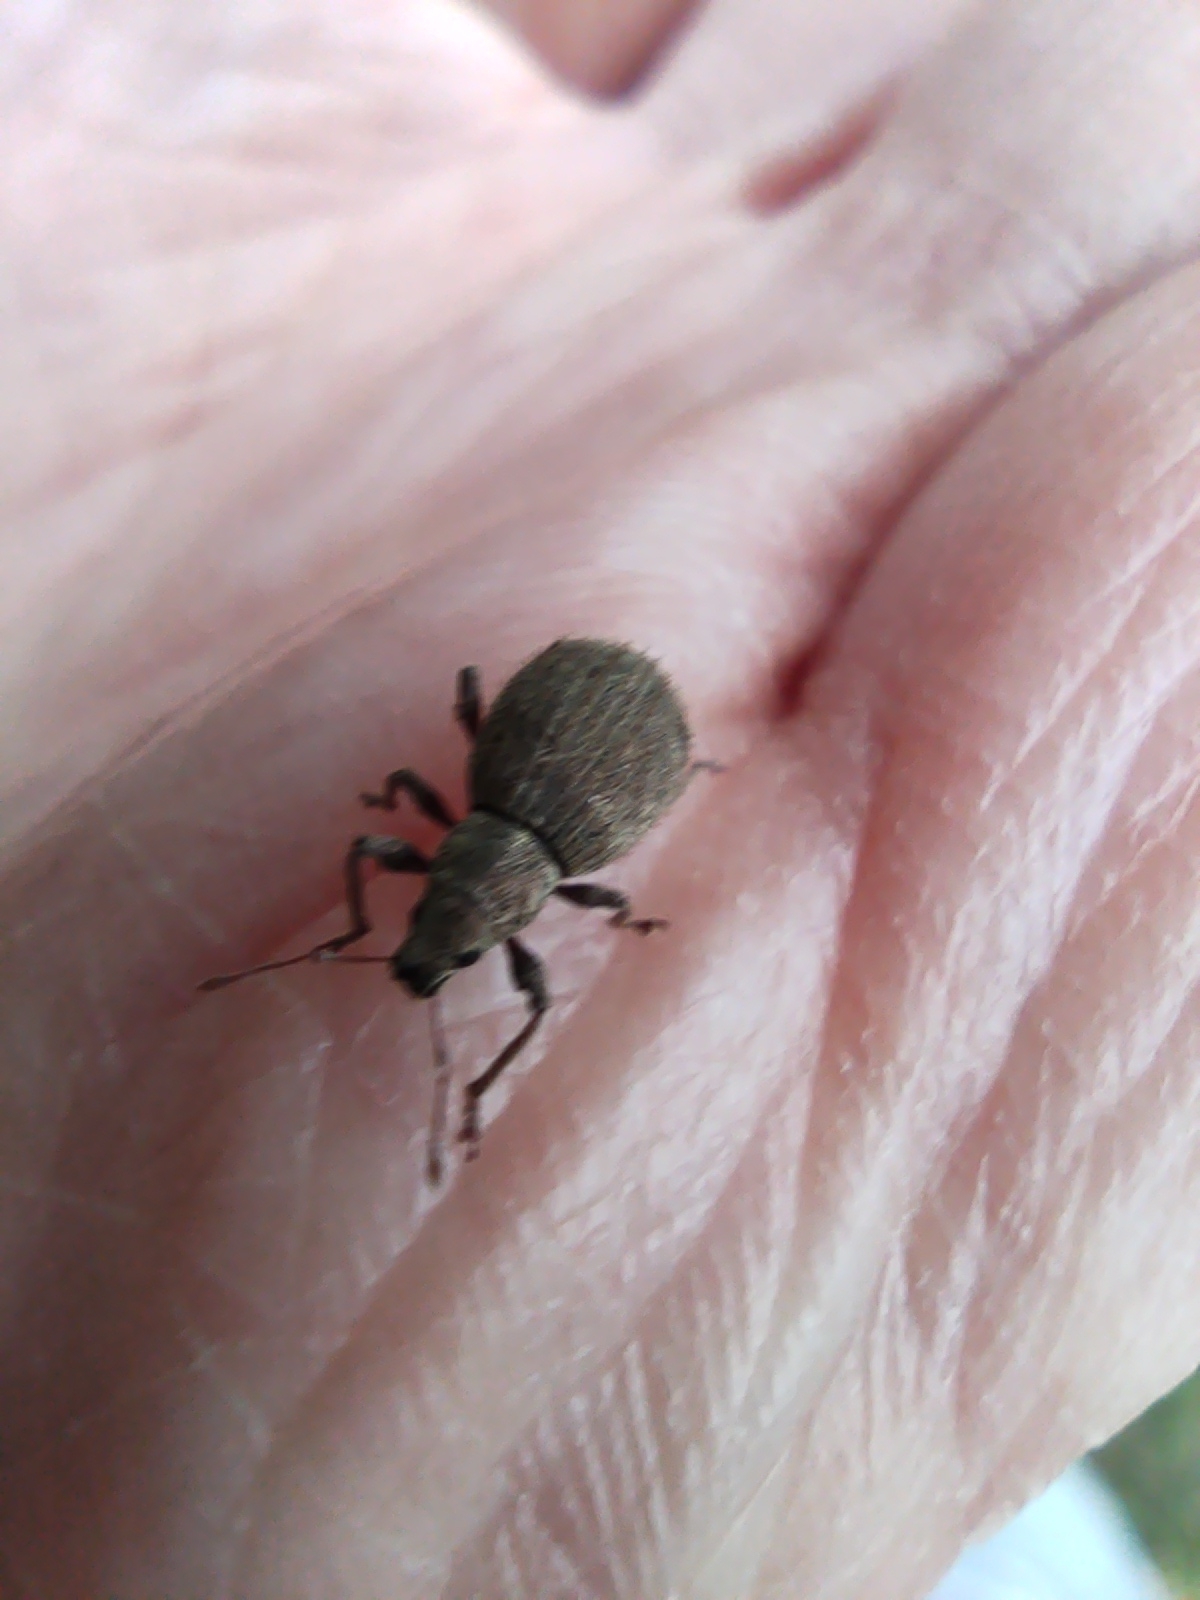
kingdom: Animalia
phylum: Arthropoda
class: Insecta
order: Coleoptera
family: Curculionidae
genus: Sciaphilus
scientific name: Sciaphilus asperatus
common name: Weevil
